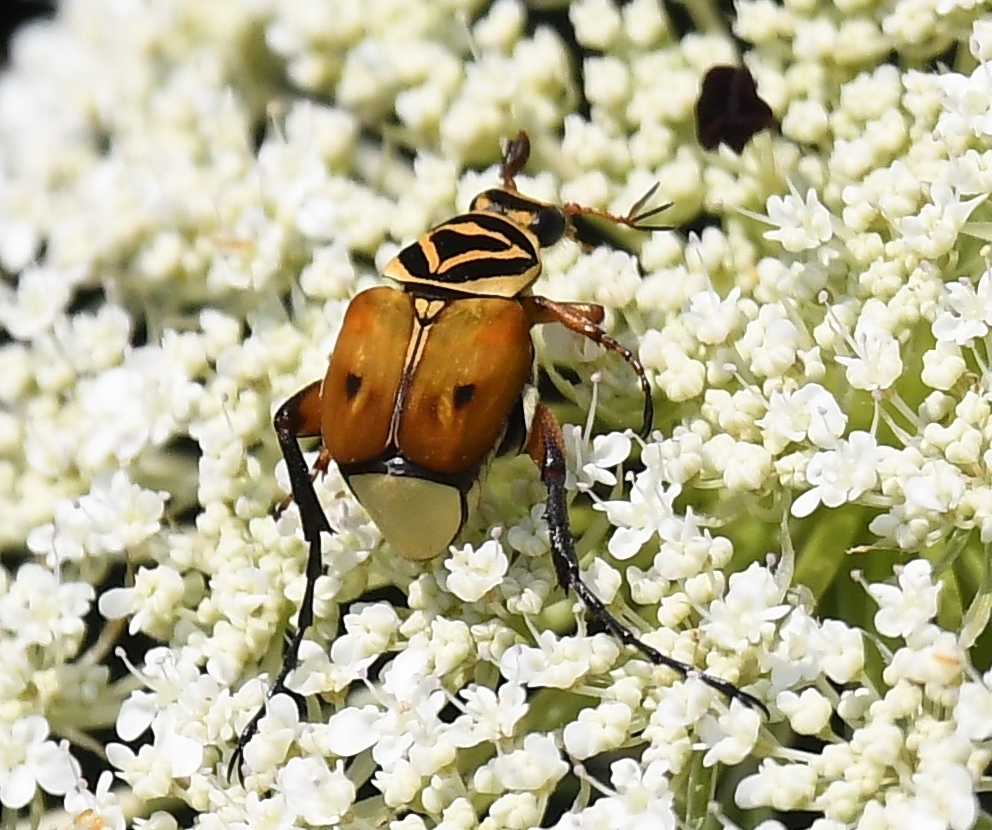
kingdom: Animalia
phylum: Arthropoda
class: Insecta
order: Coleoptera
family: Scarabaeidae
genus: Trigonopeltastes
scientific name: Trigonopeltastes delta
